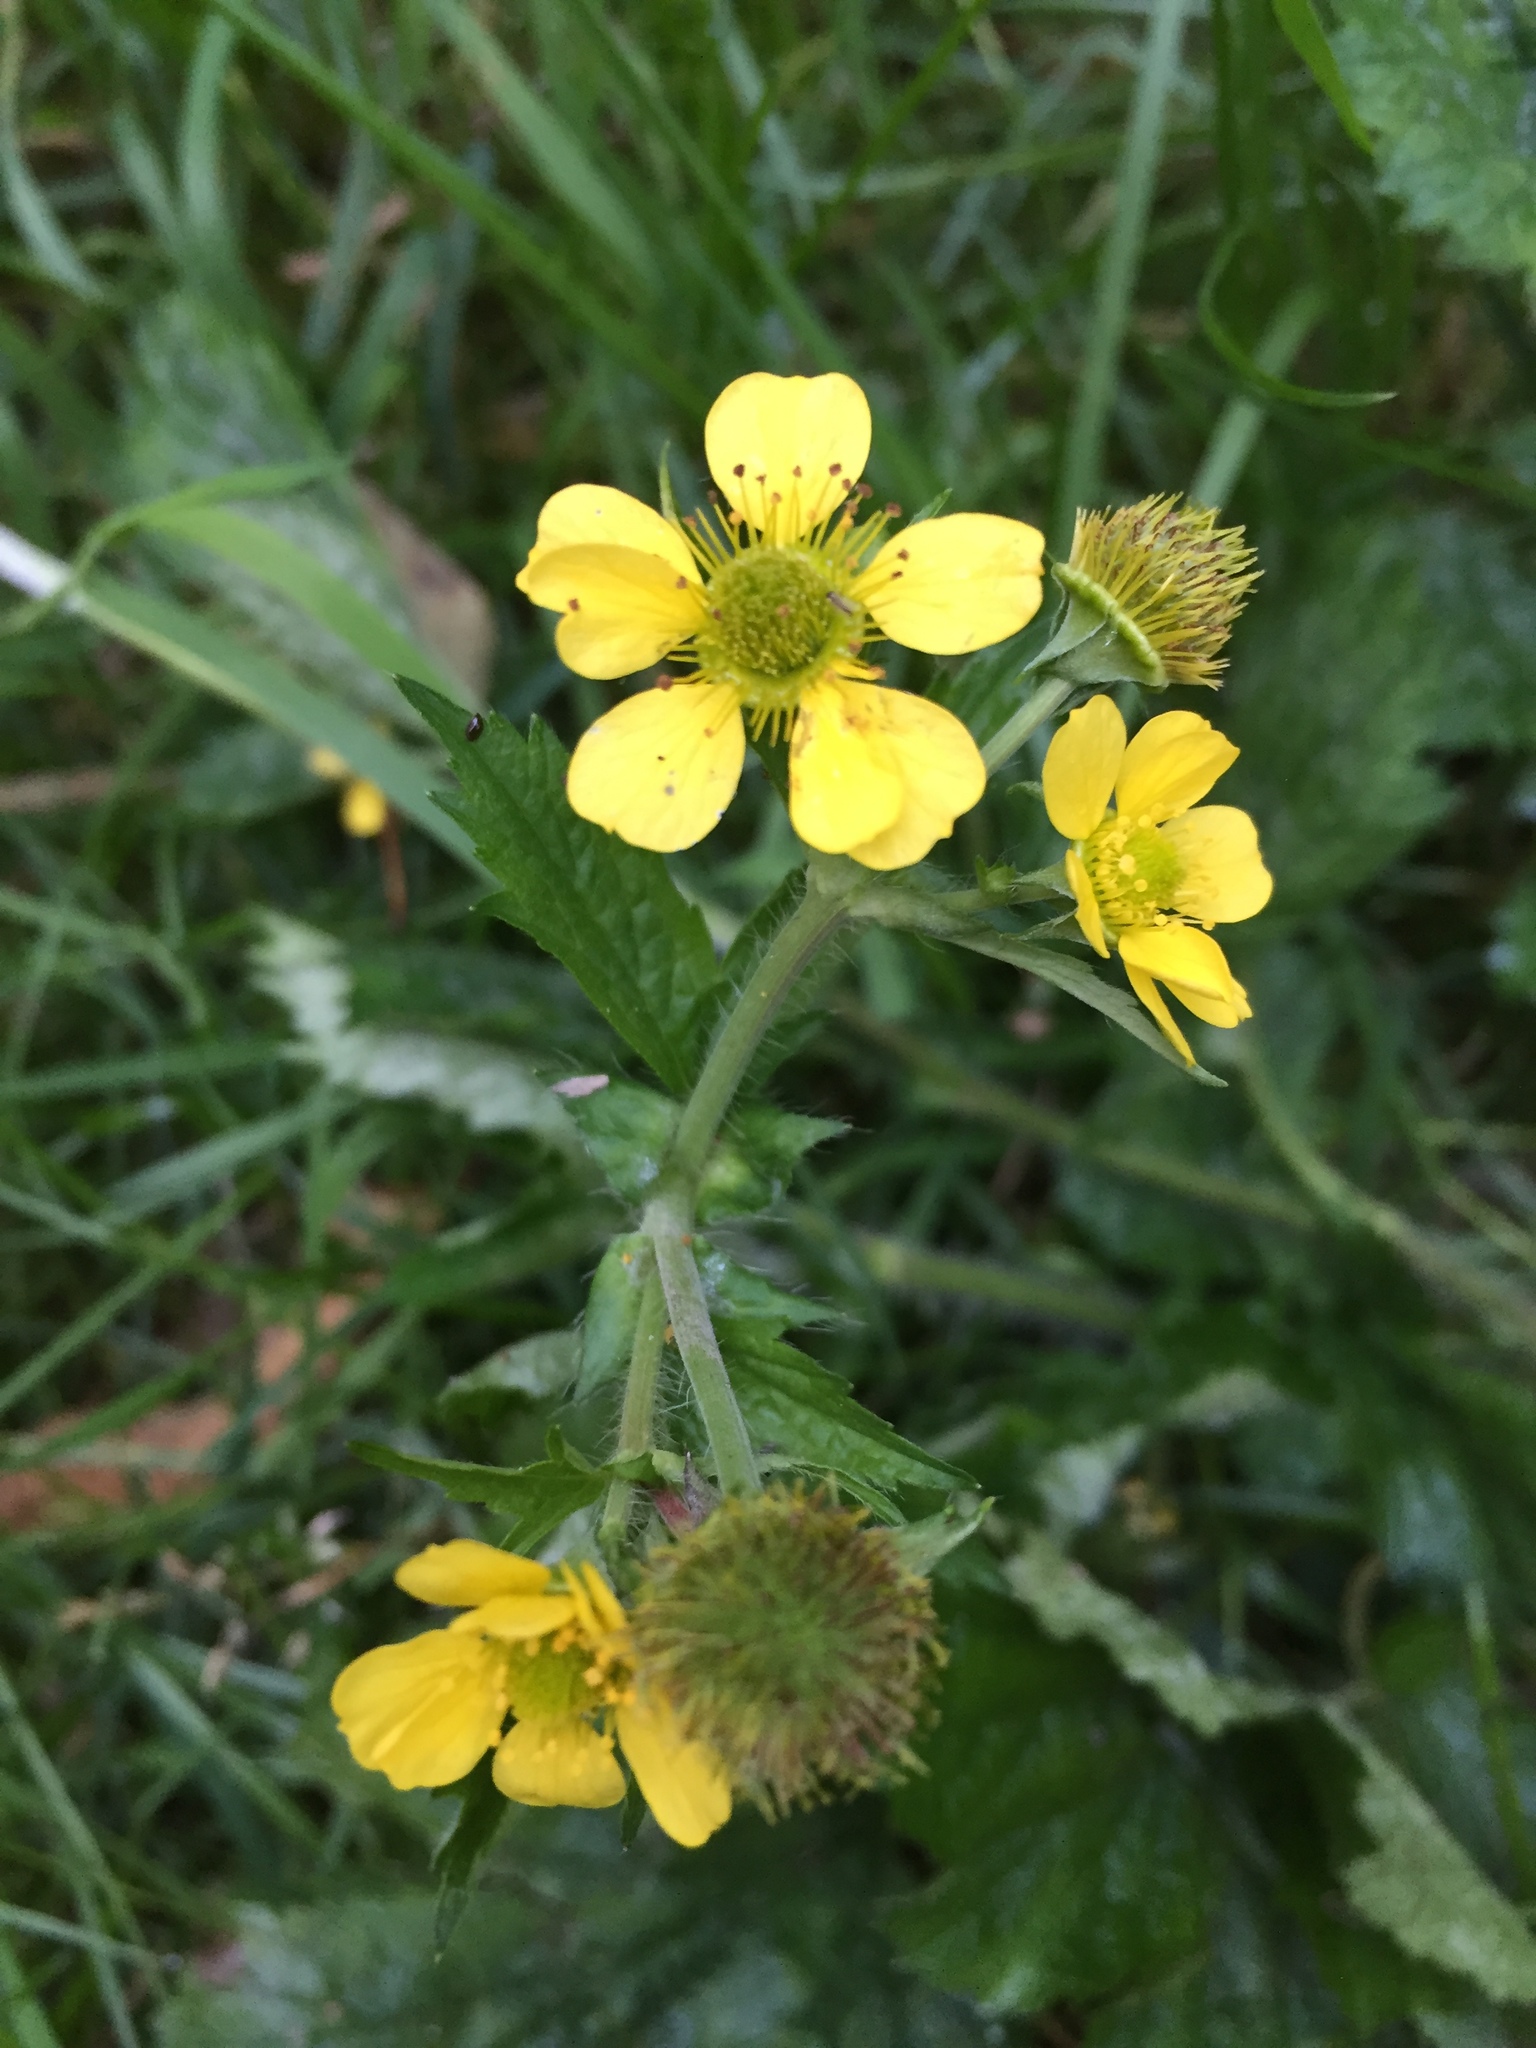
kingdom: Plantae
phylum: Tracheophyta
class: Magnoliopsida
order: Rosales
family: Rosaceae
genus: Geum
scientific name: Geum macrophyllum
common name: Large-leaved avens
